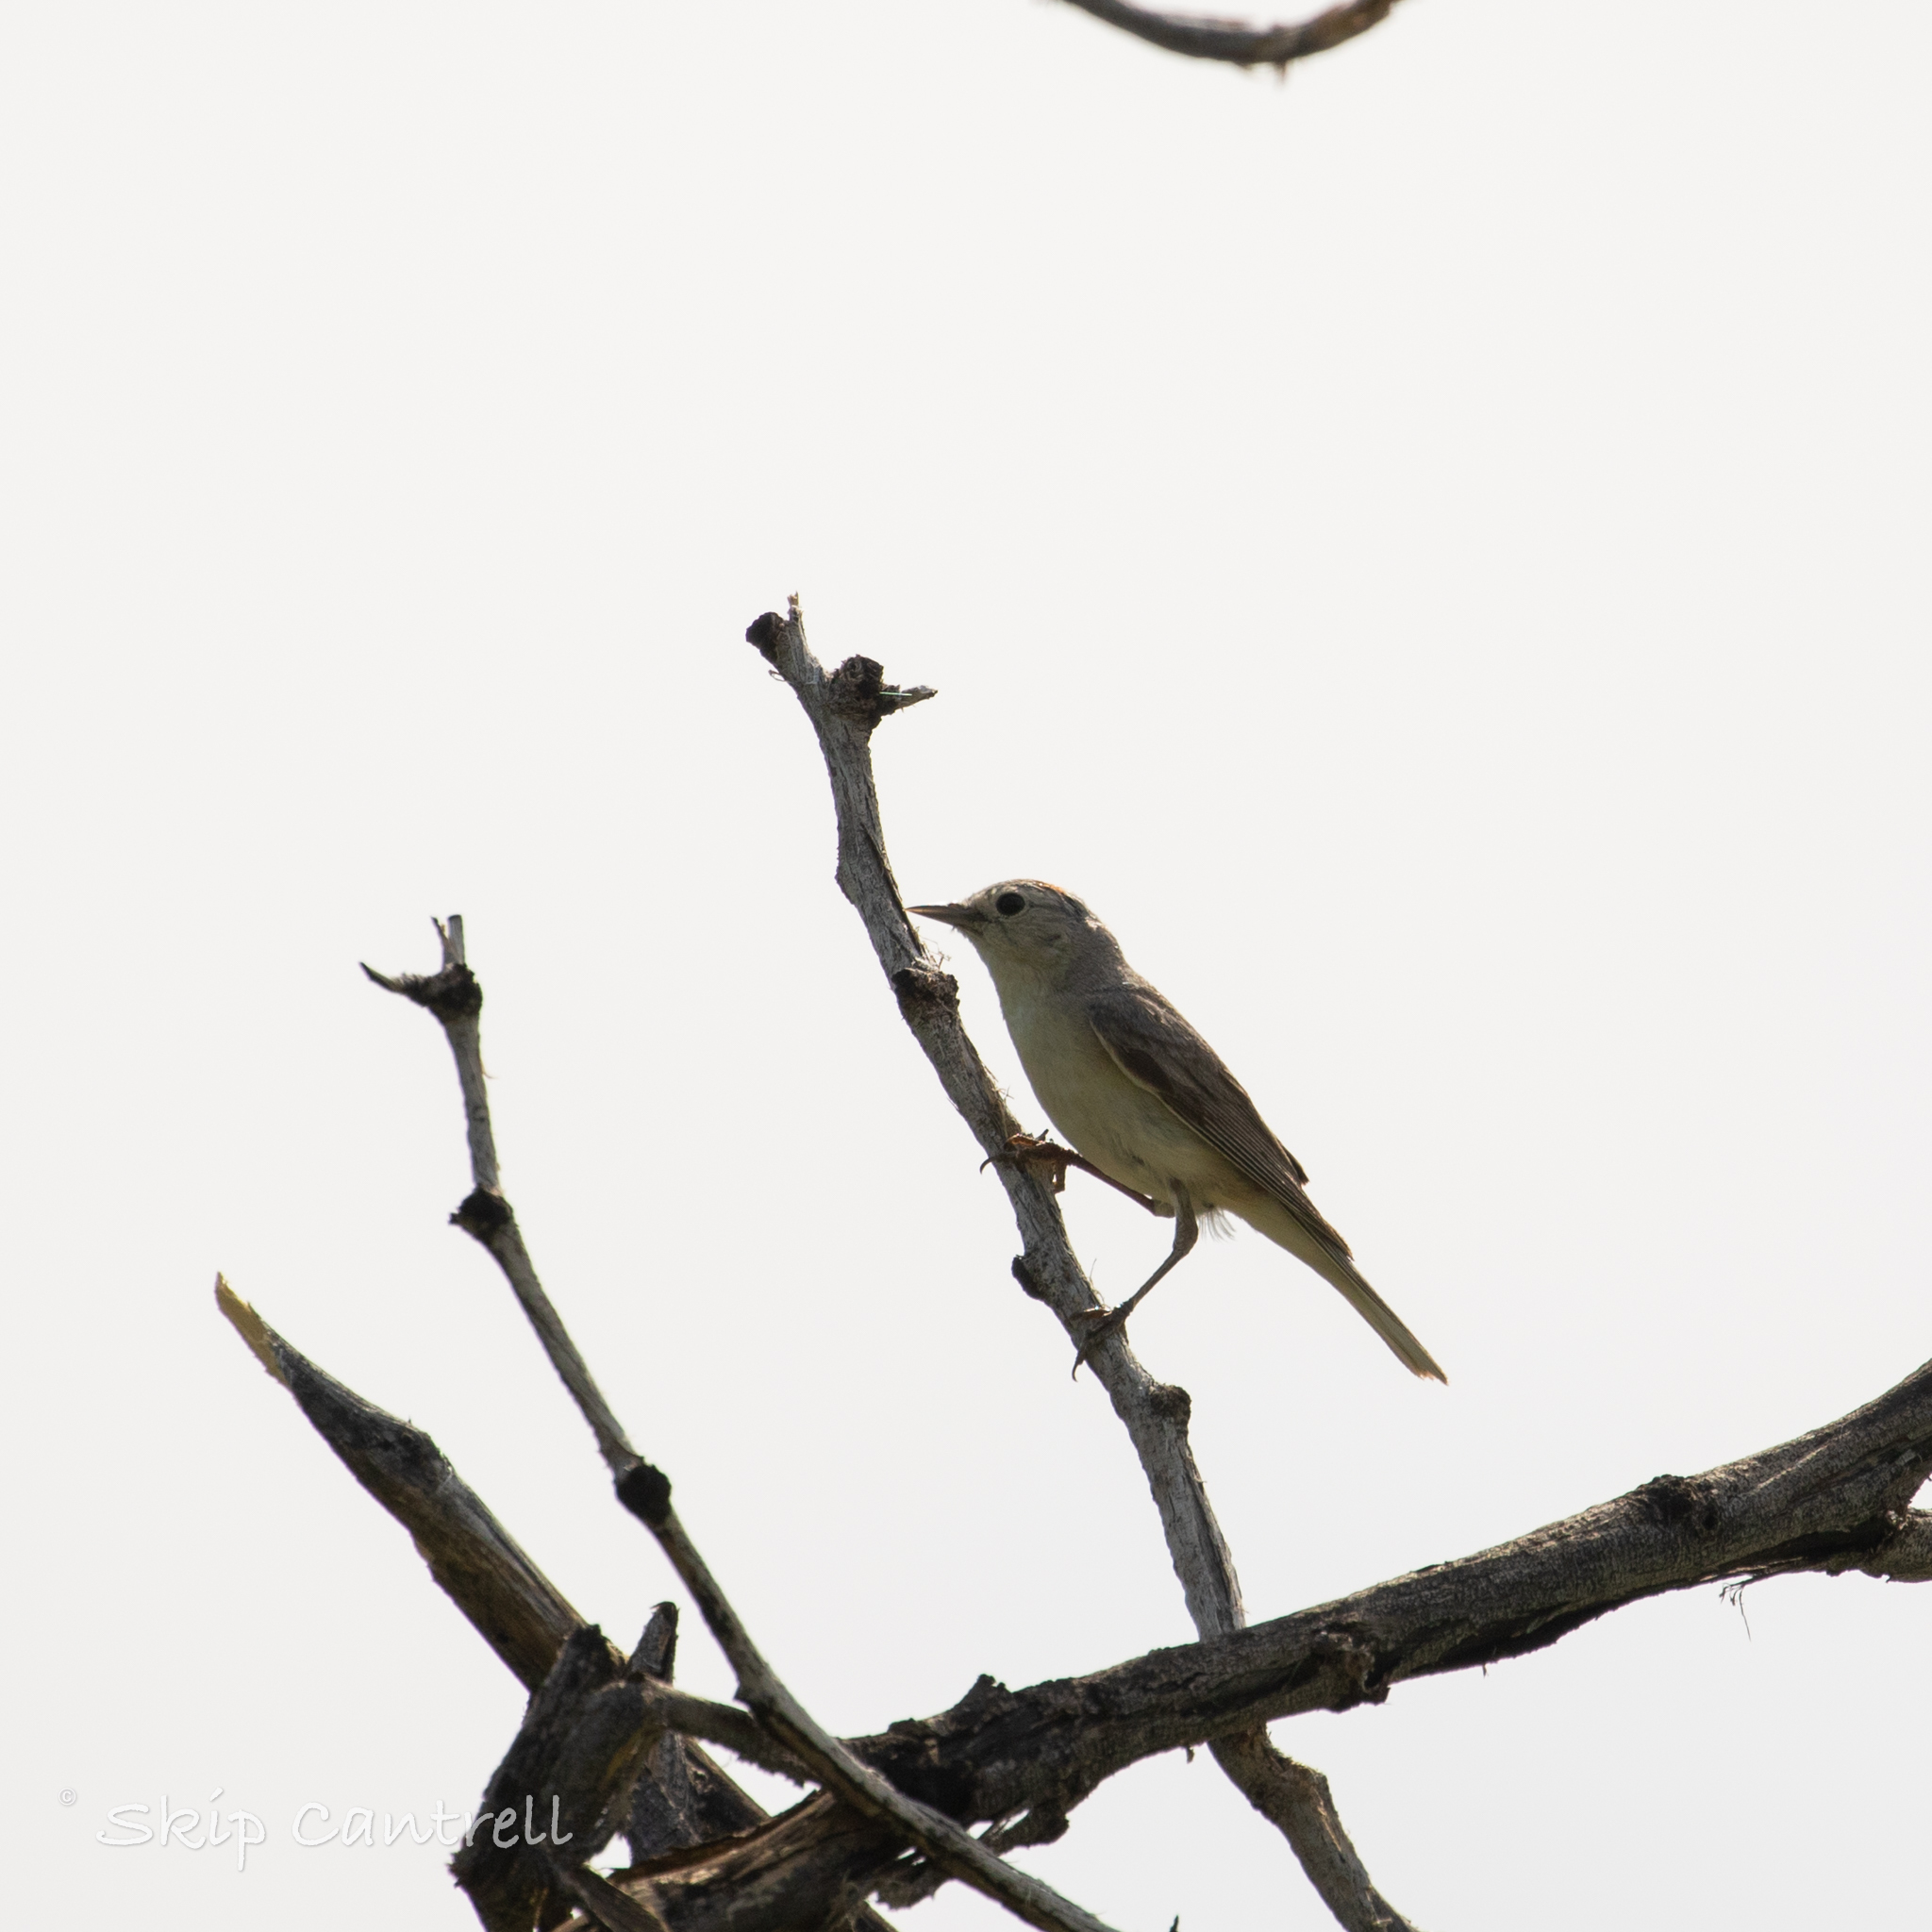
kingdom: Animalia
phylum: Chordata
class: Aves
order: Passeriformes
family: Parulidae
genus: Leiothlypis
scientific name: Leiothlypis luciae
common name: Lucy's warbler
